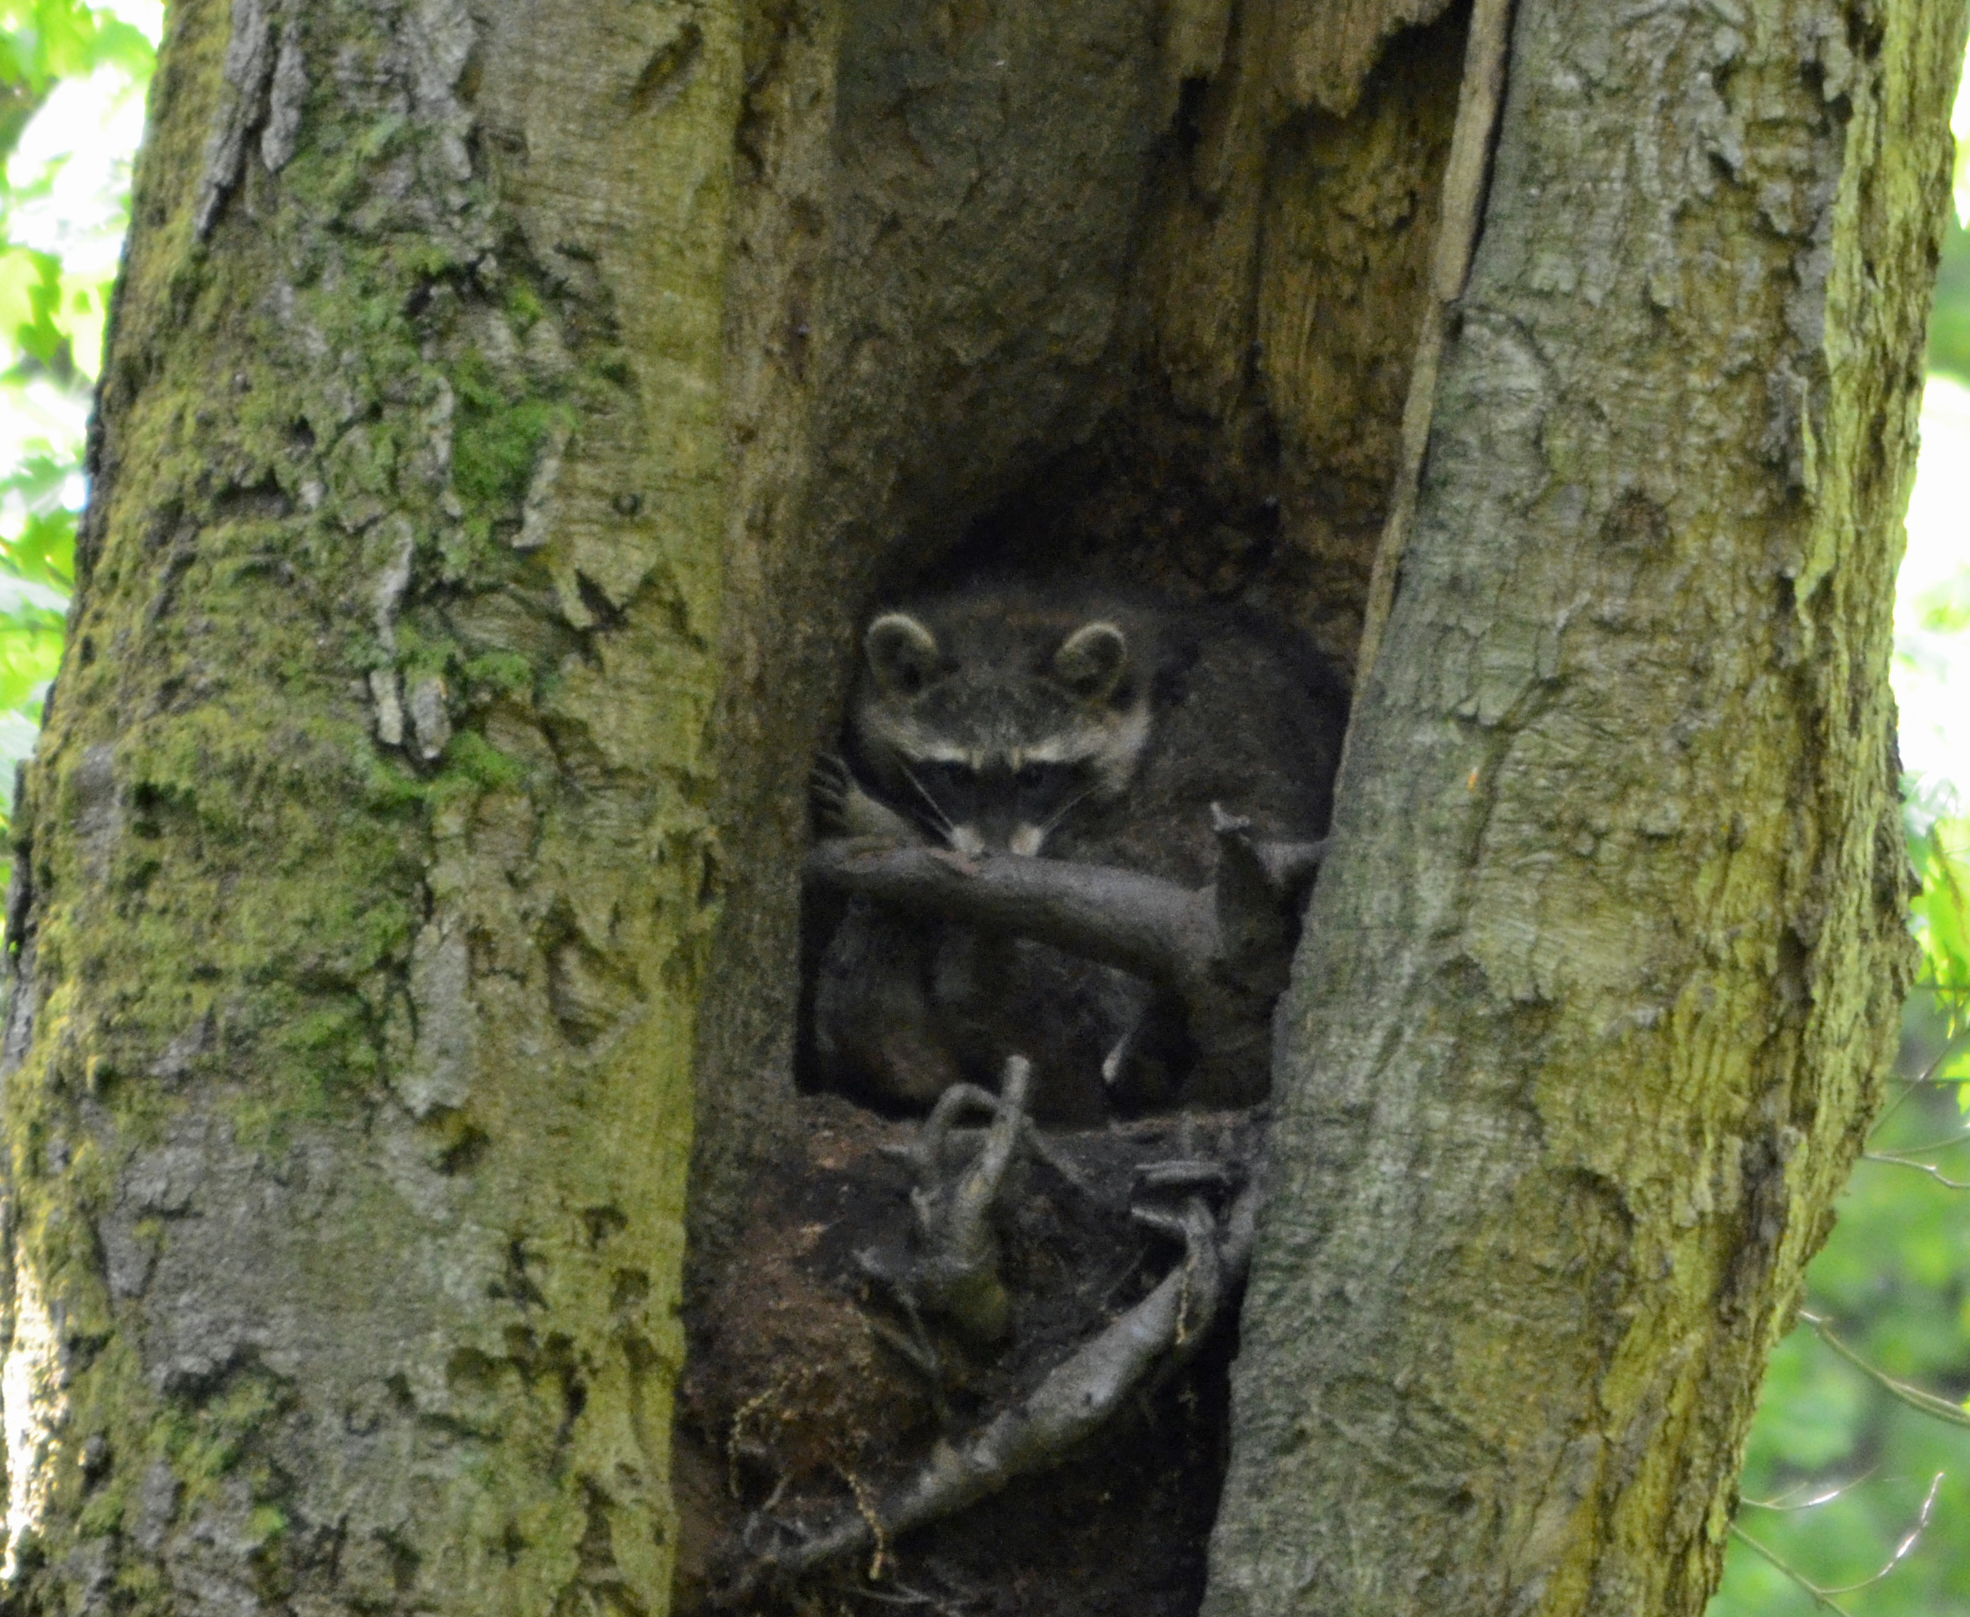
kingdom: Animalia
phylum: Chordata
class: Mammalia
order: Carnivora
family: Procyonidae
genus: Procyon
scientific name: Procyon lotor
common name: Raccoon
